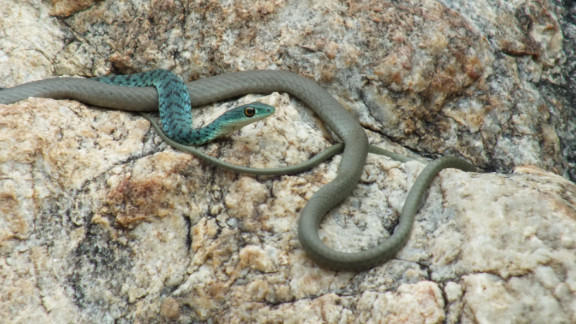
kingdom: Animalia
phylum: Chordata
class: Squamata
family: Colubridae
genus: Philothamnus
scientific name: Philothamnus semivariegatus
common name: Spotted bush snake
